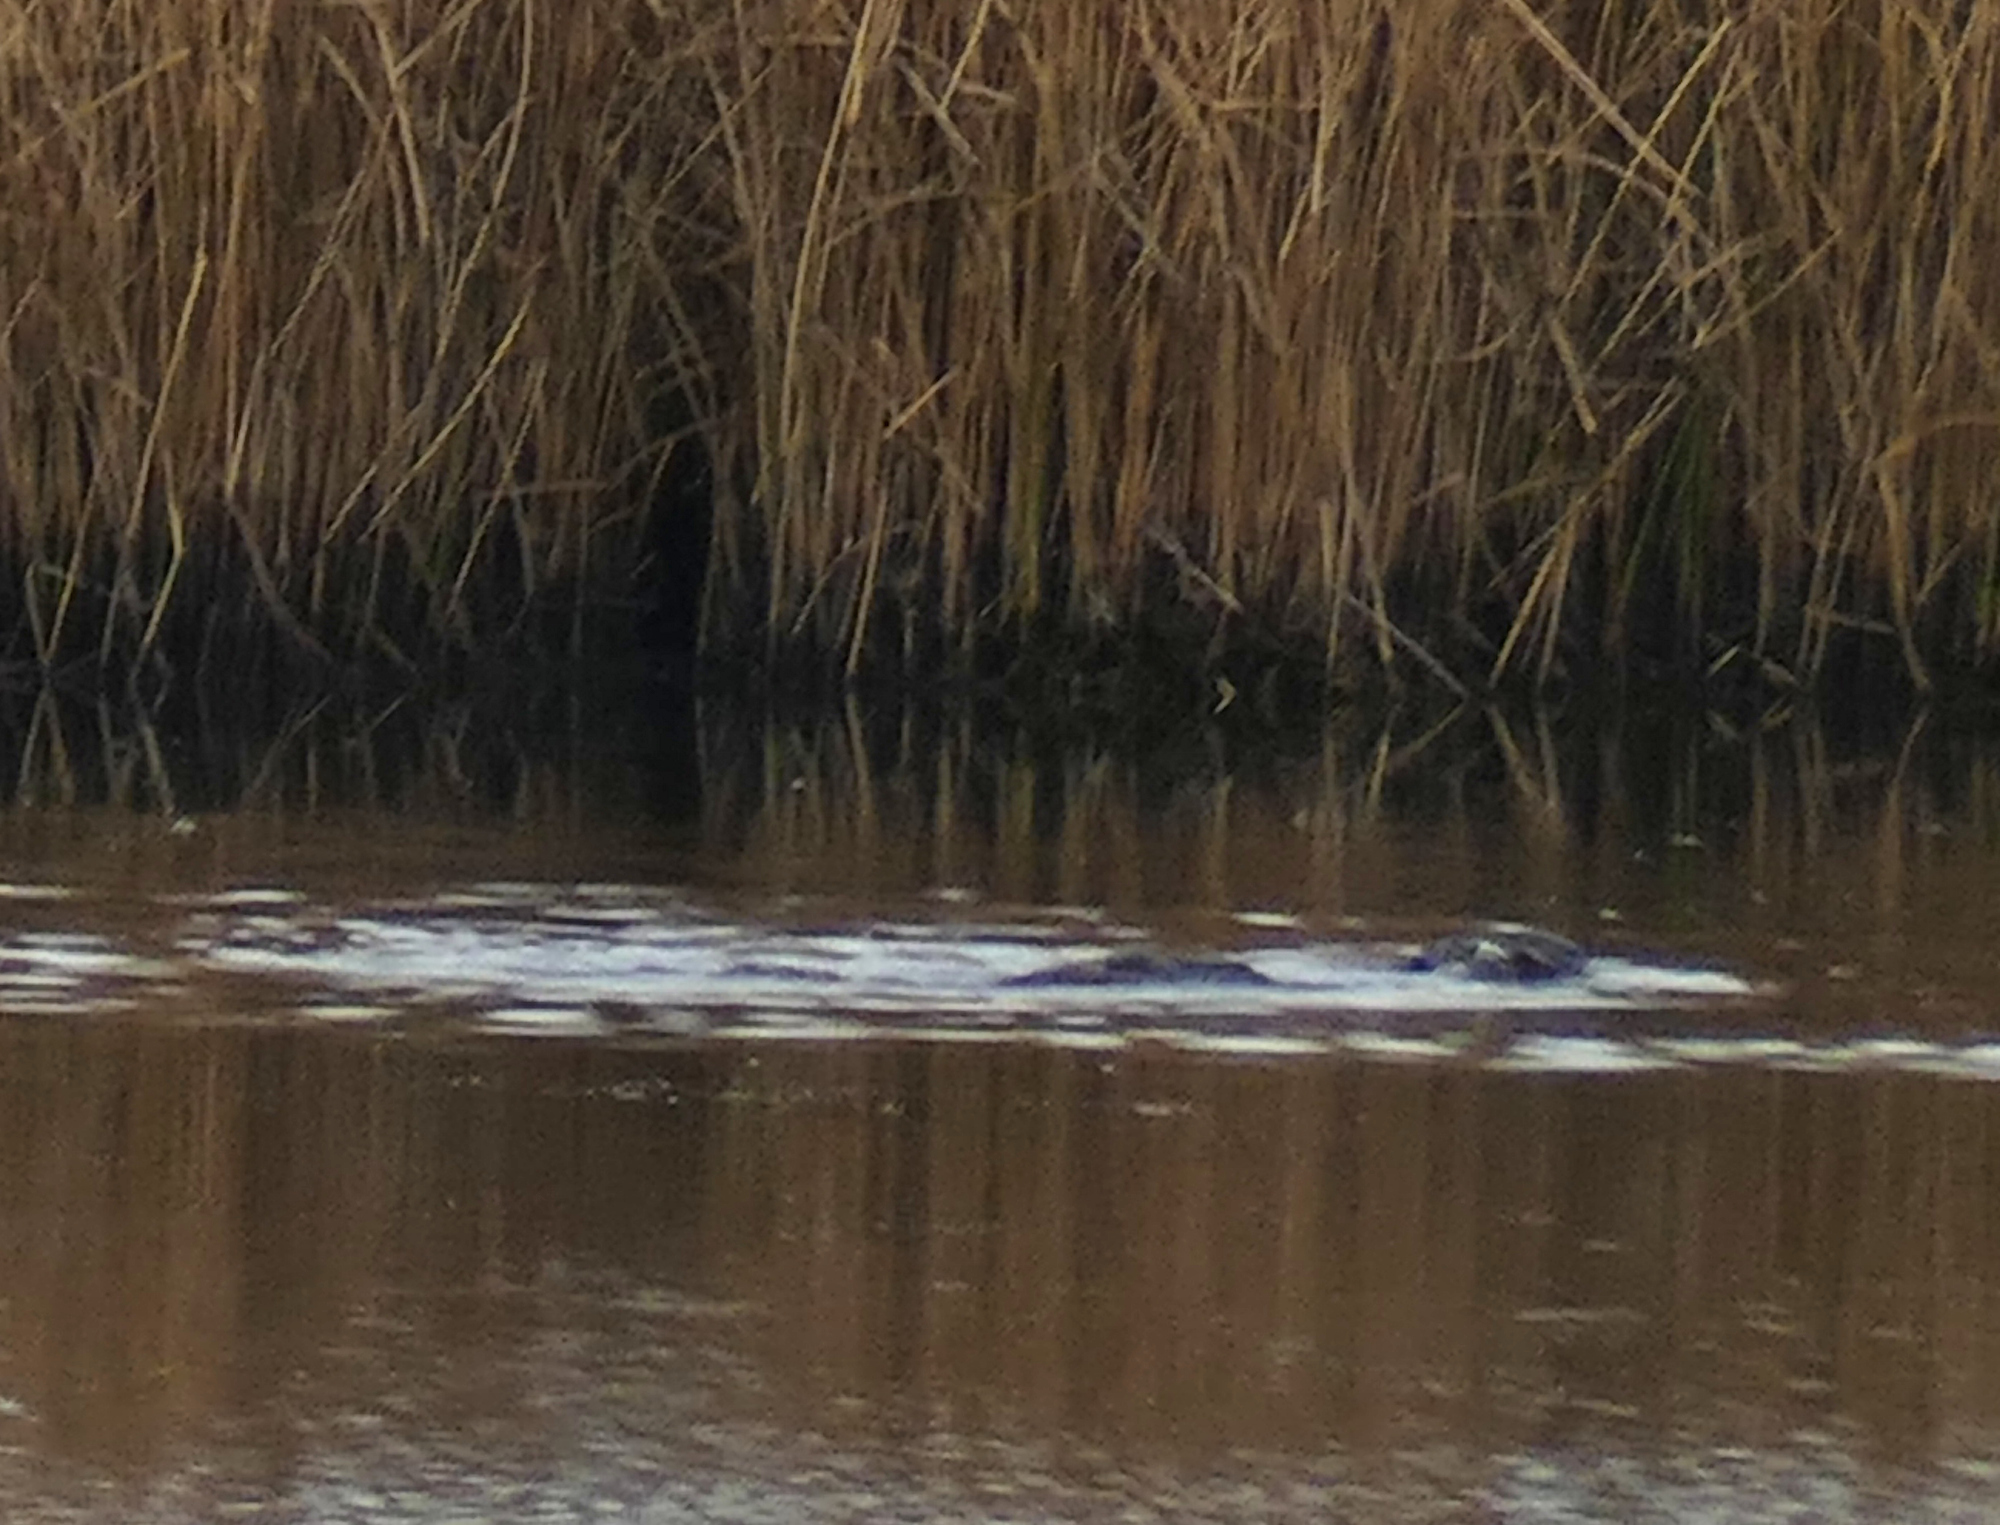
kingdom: Animalia
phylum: Chordata
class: Mammalia
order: Rodentia
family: Cricetidae
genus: Ondatra
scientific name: Ondatra zibethicus
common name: Muskrat
